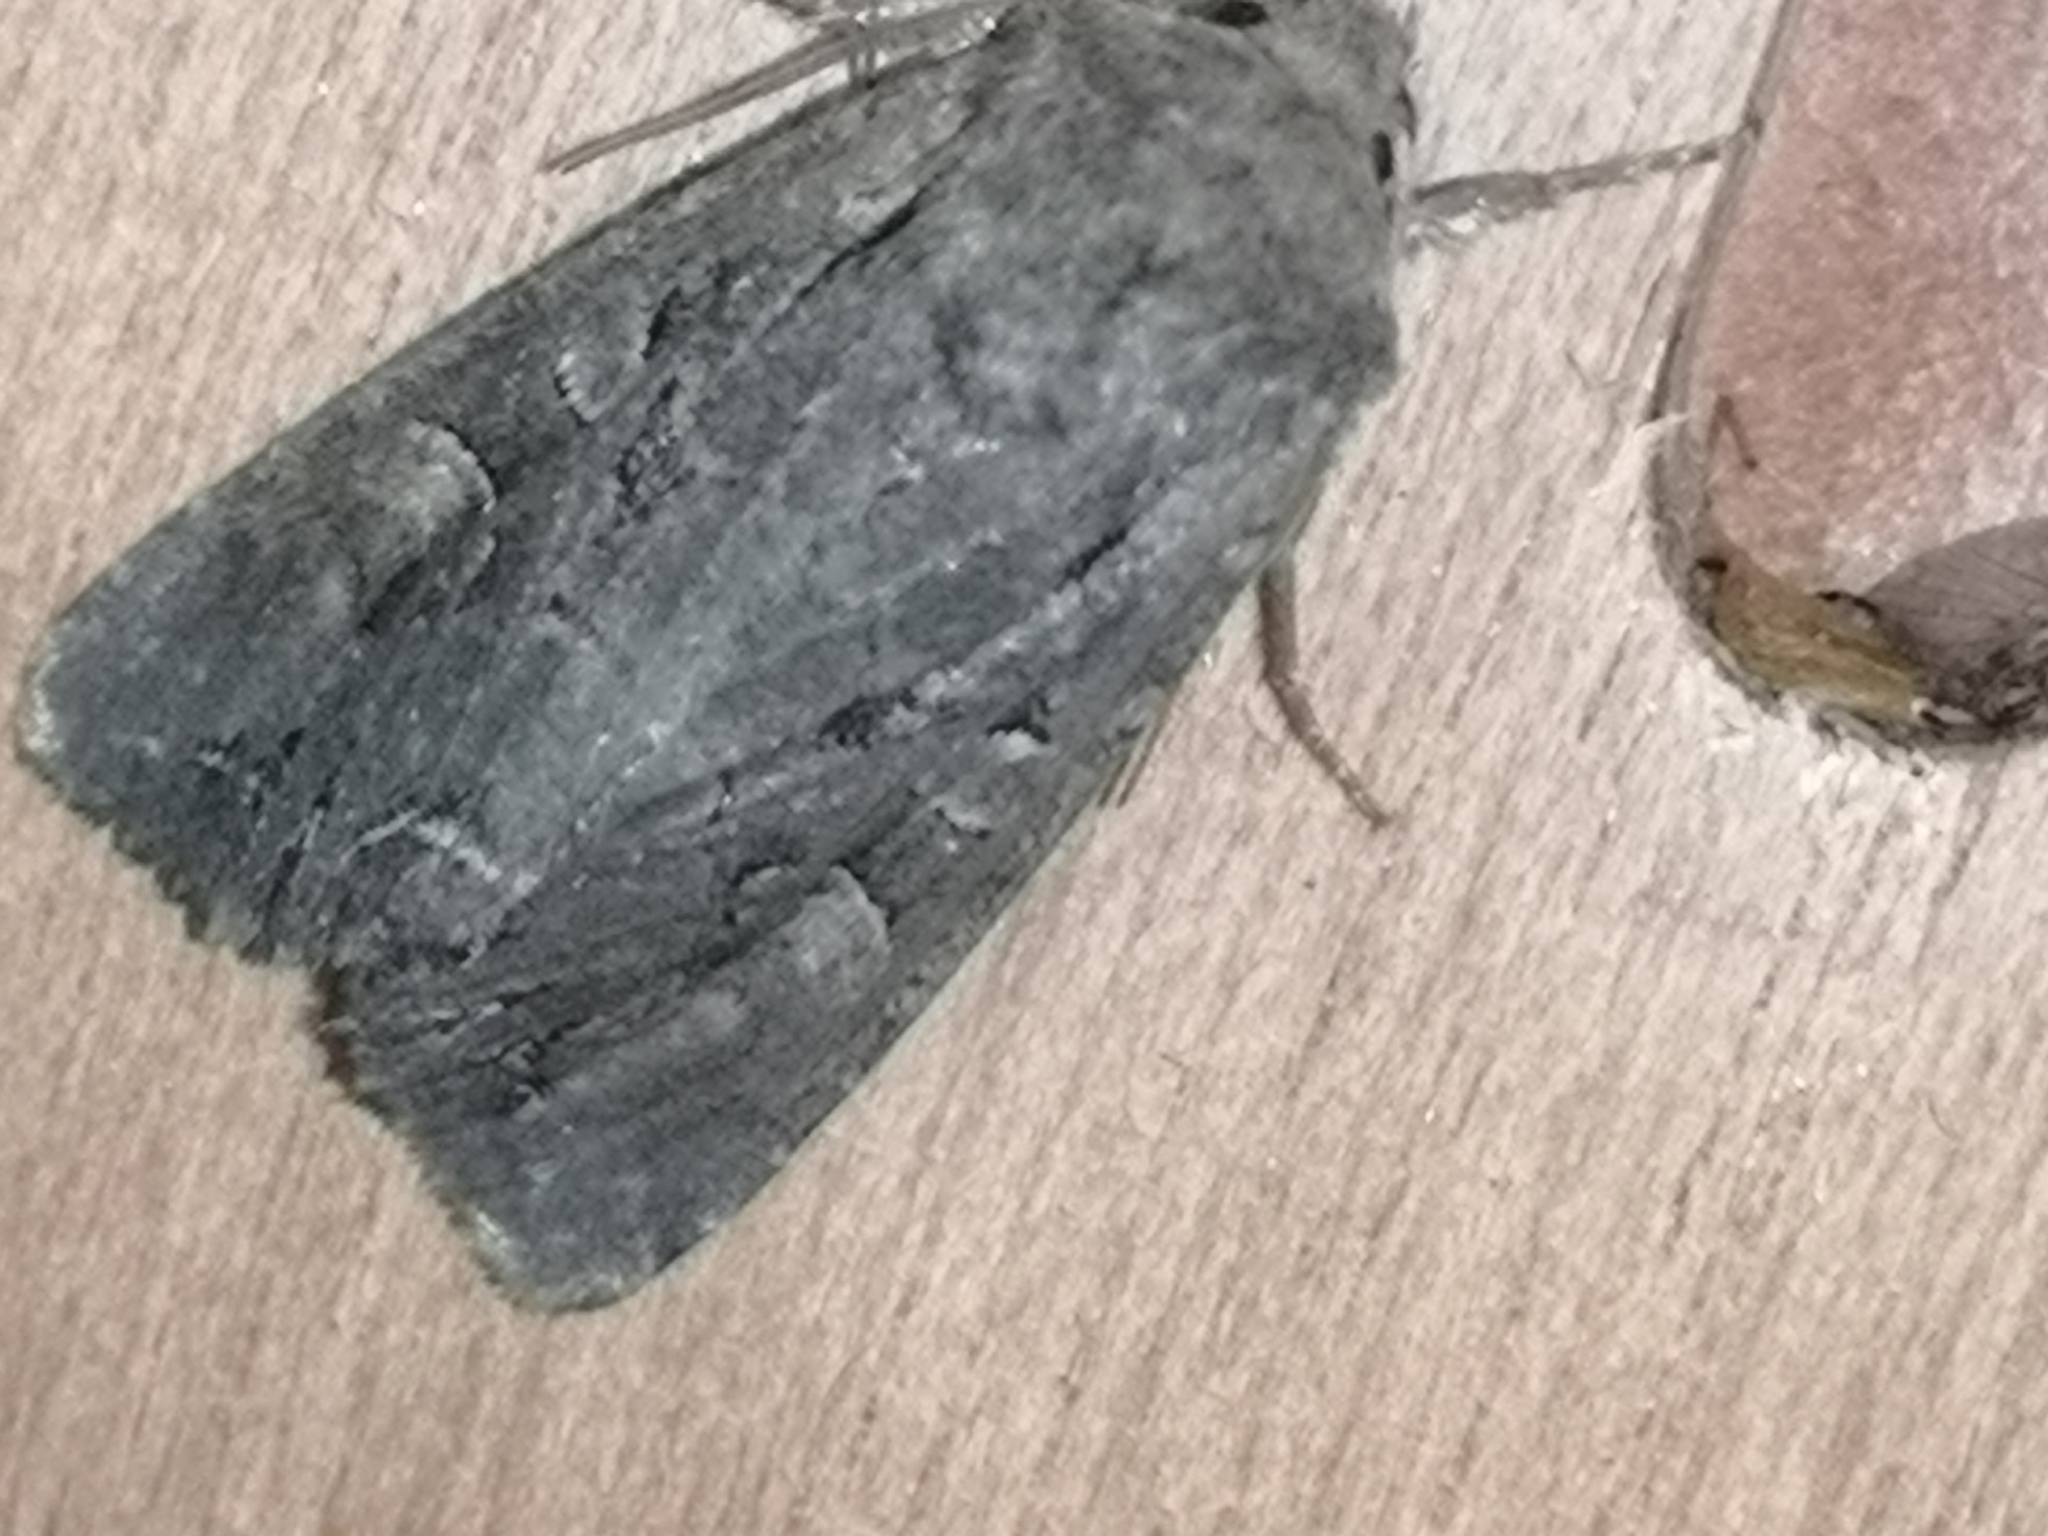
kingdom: Animalia
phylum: Arthropoda
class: Insecta
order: Lepidoptera
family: Noctuidae
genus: Luperina
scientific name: Luperina testacea
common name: Flounced rustic
